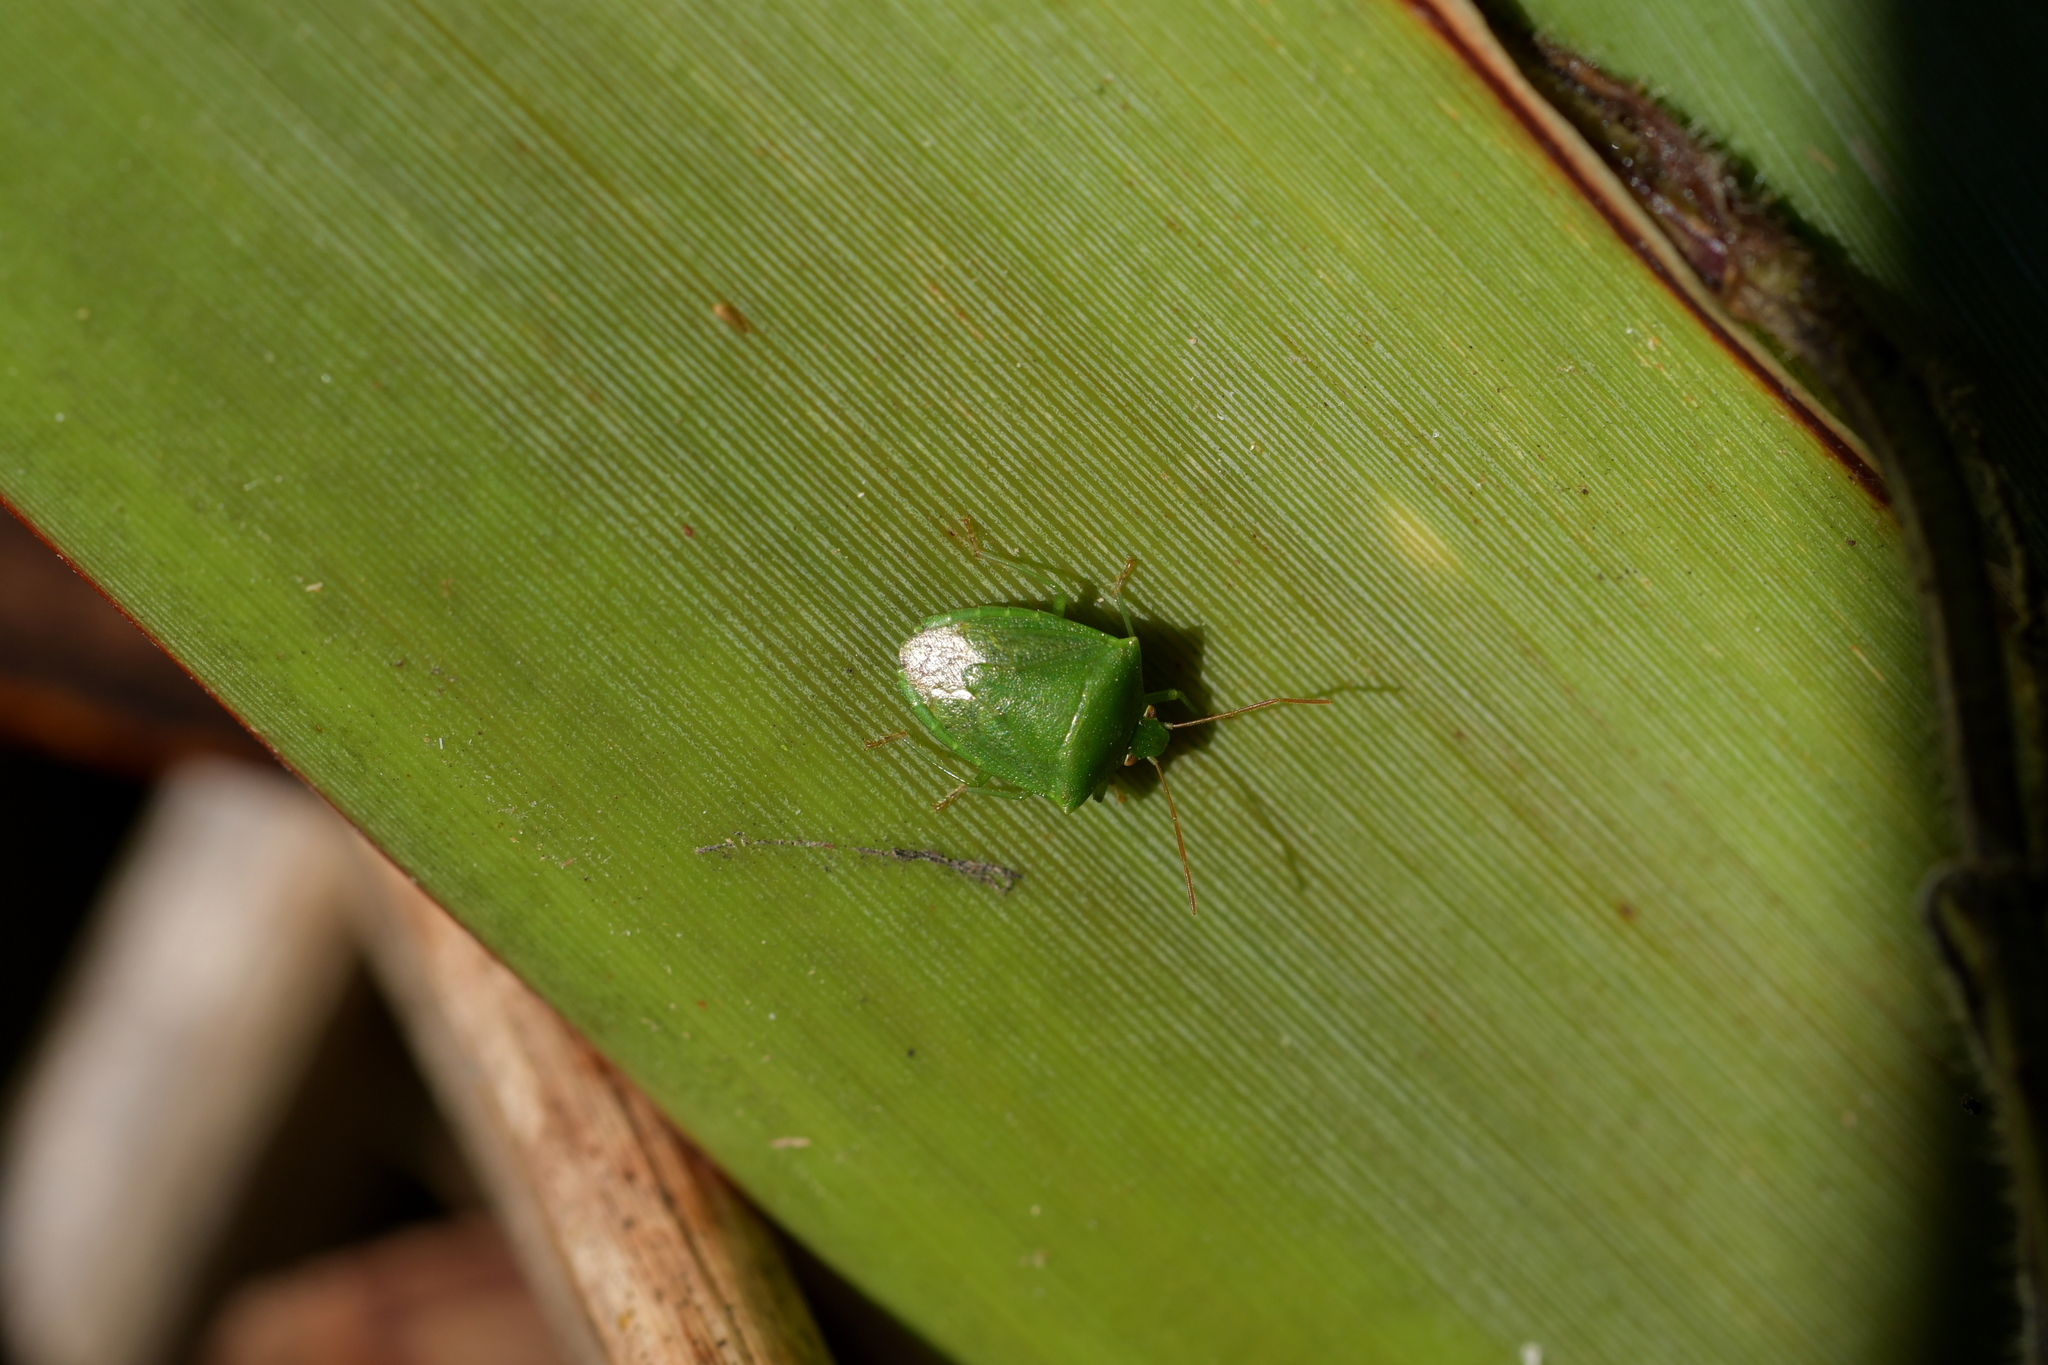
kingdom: Animalia
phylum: Arthropoda
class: Insecta
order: Hemiptera
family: Pentatomidae
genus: Cuspicona
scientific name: Cuspicona simplex
